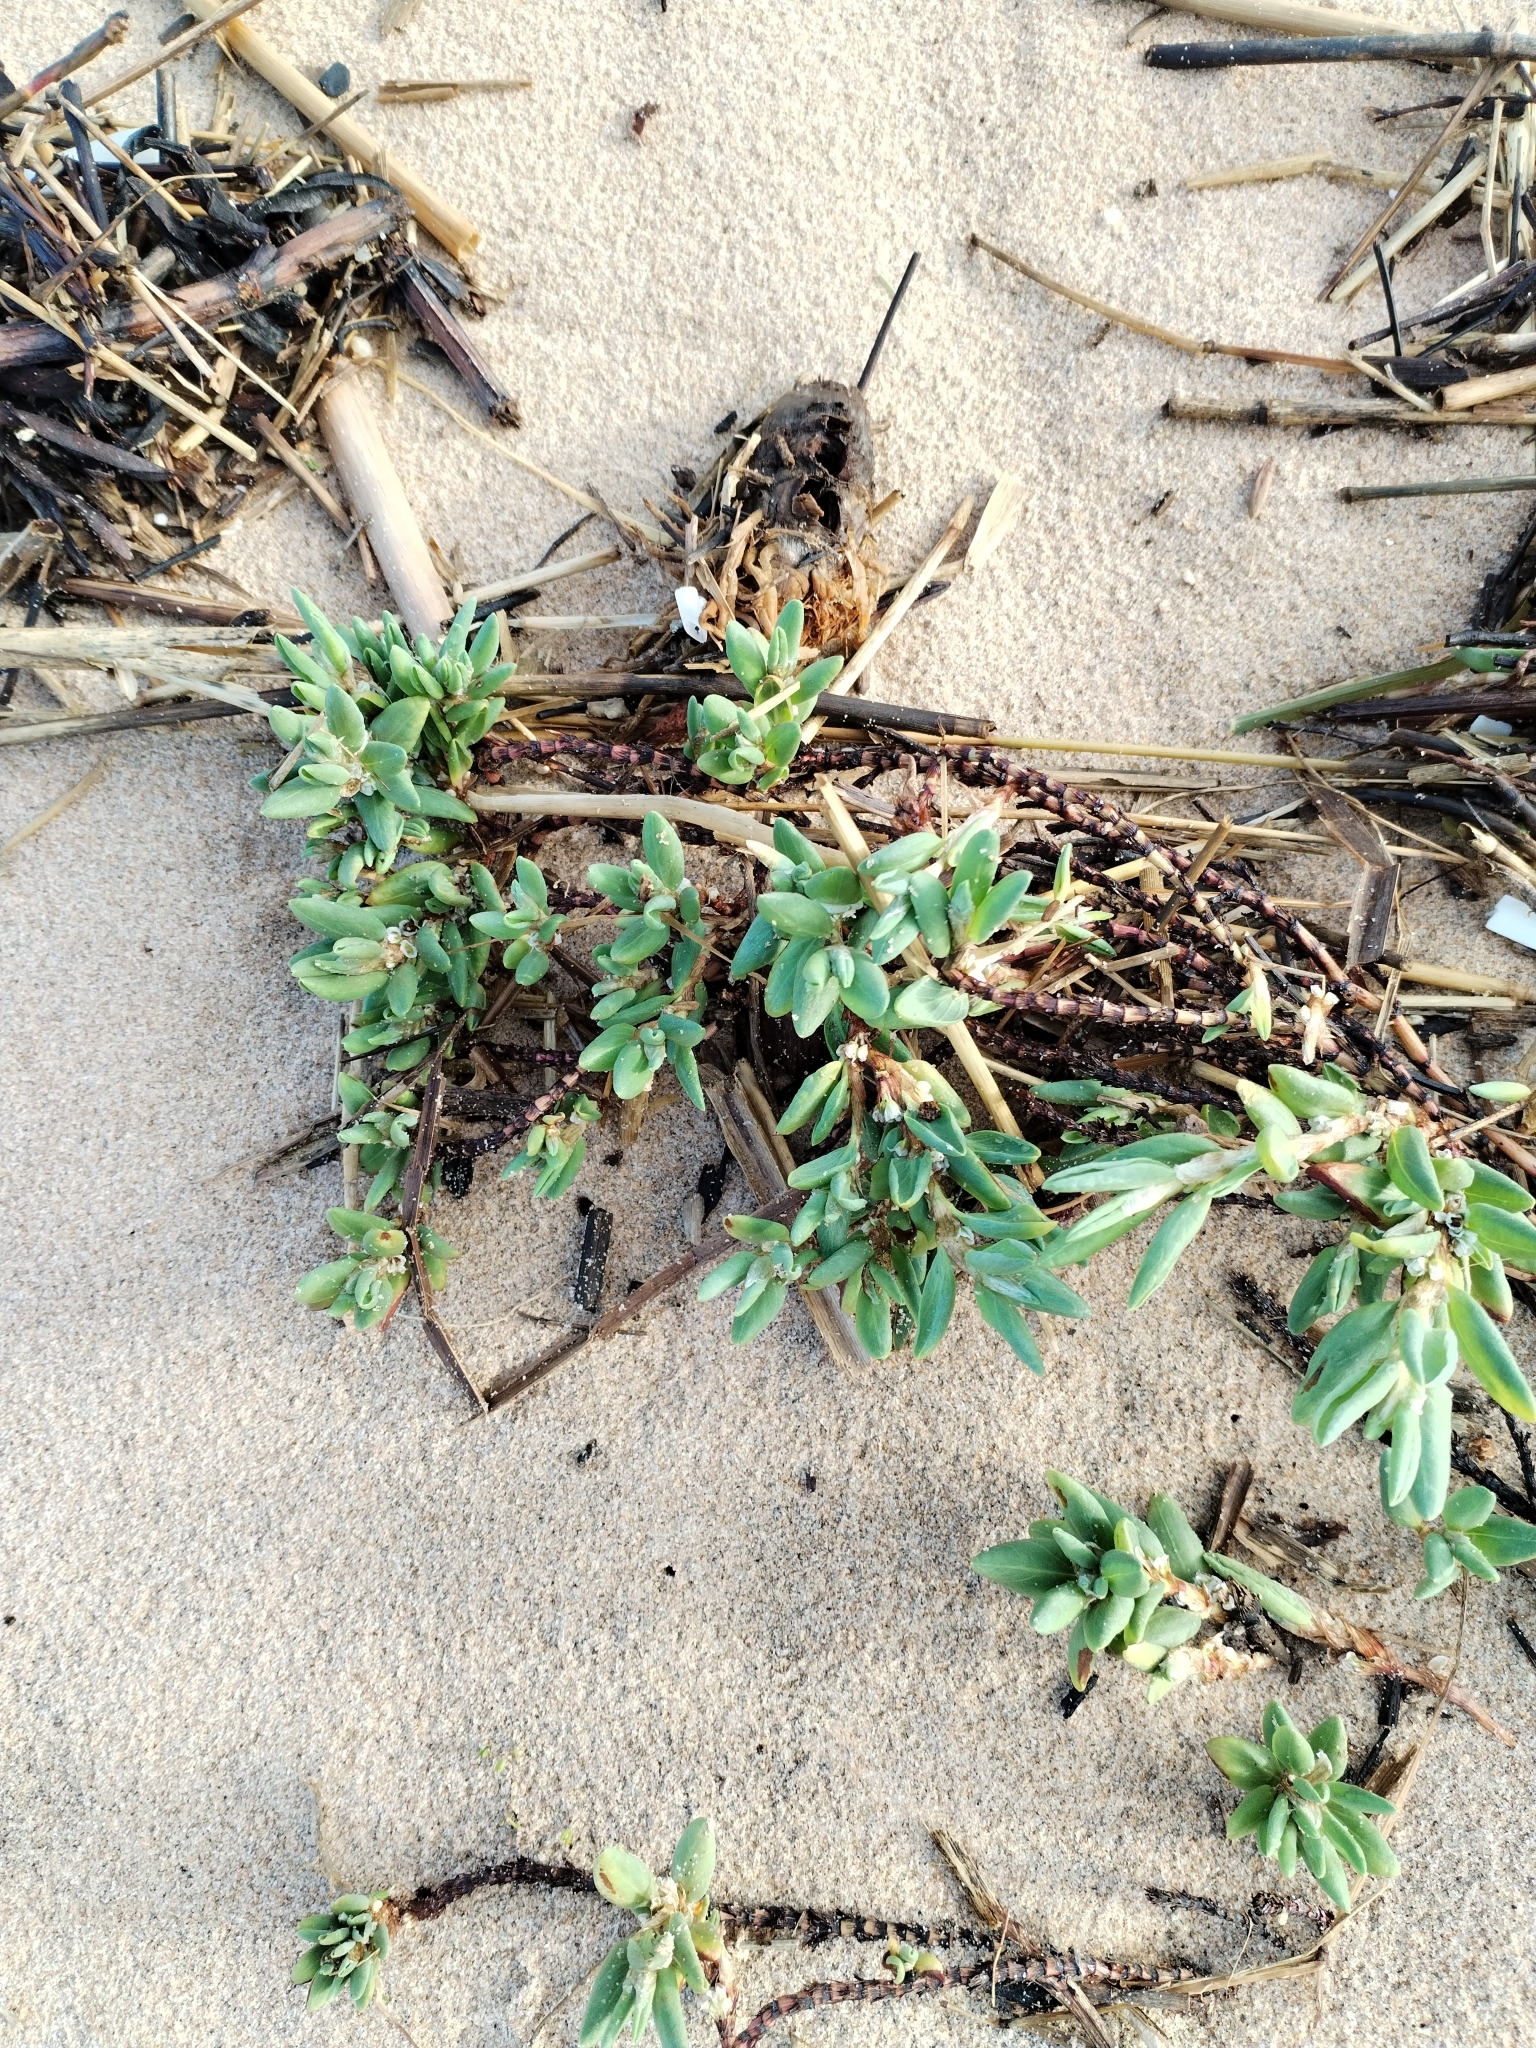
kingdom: Plantae
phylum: Tracheophyta
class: Magnoliopsida
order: Caryophyllales
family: Polygonaceae
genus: Polygonum
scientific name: Polygonum maritimum
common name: Sea knotgrass
